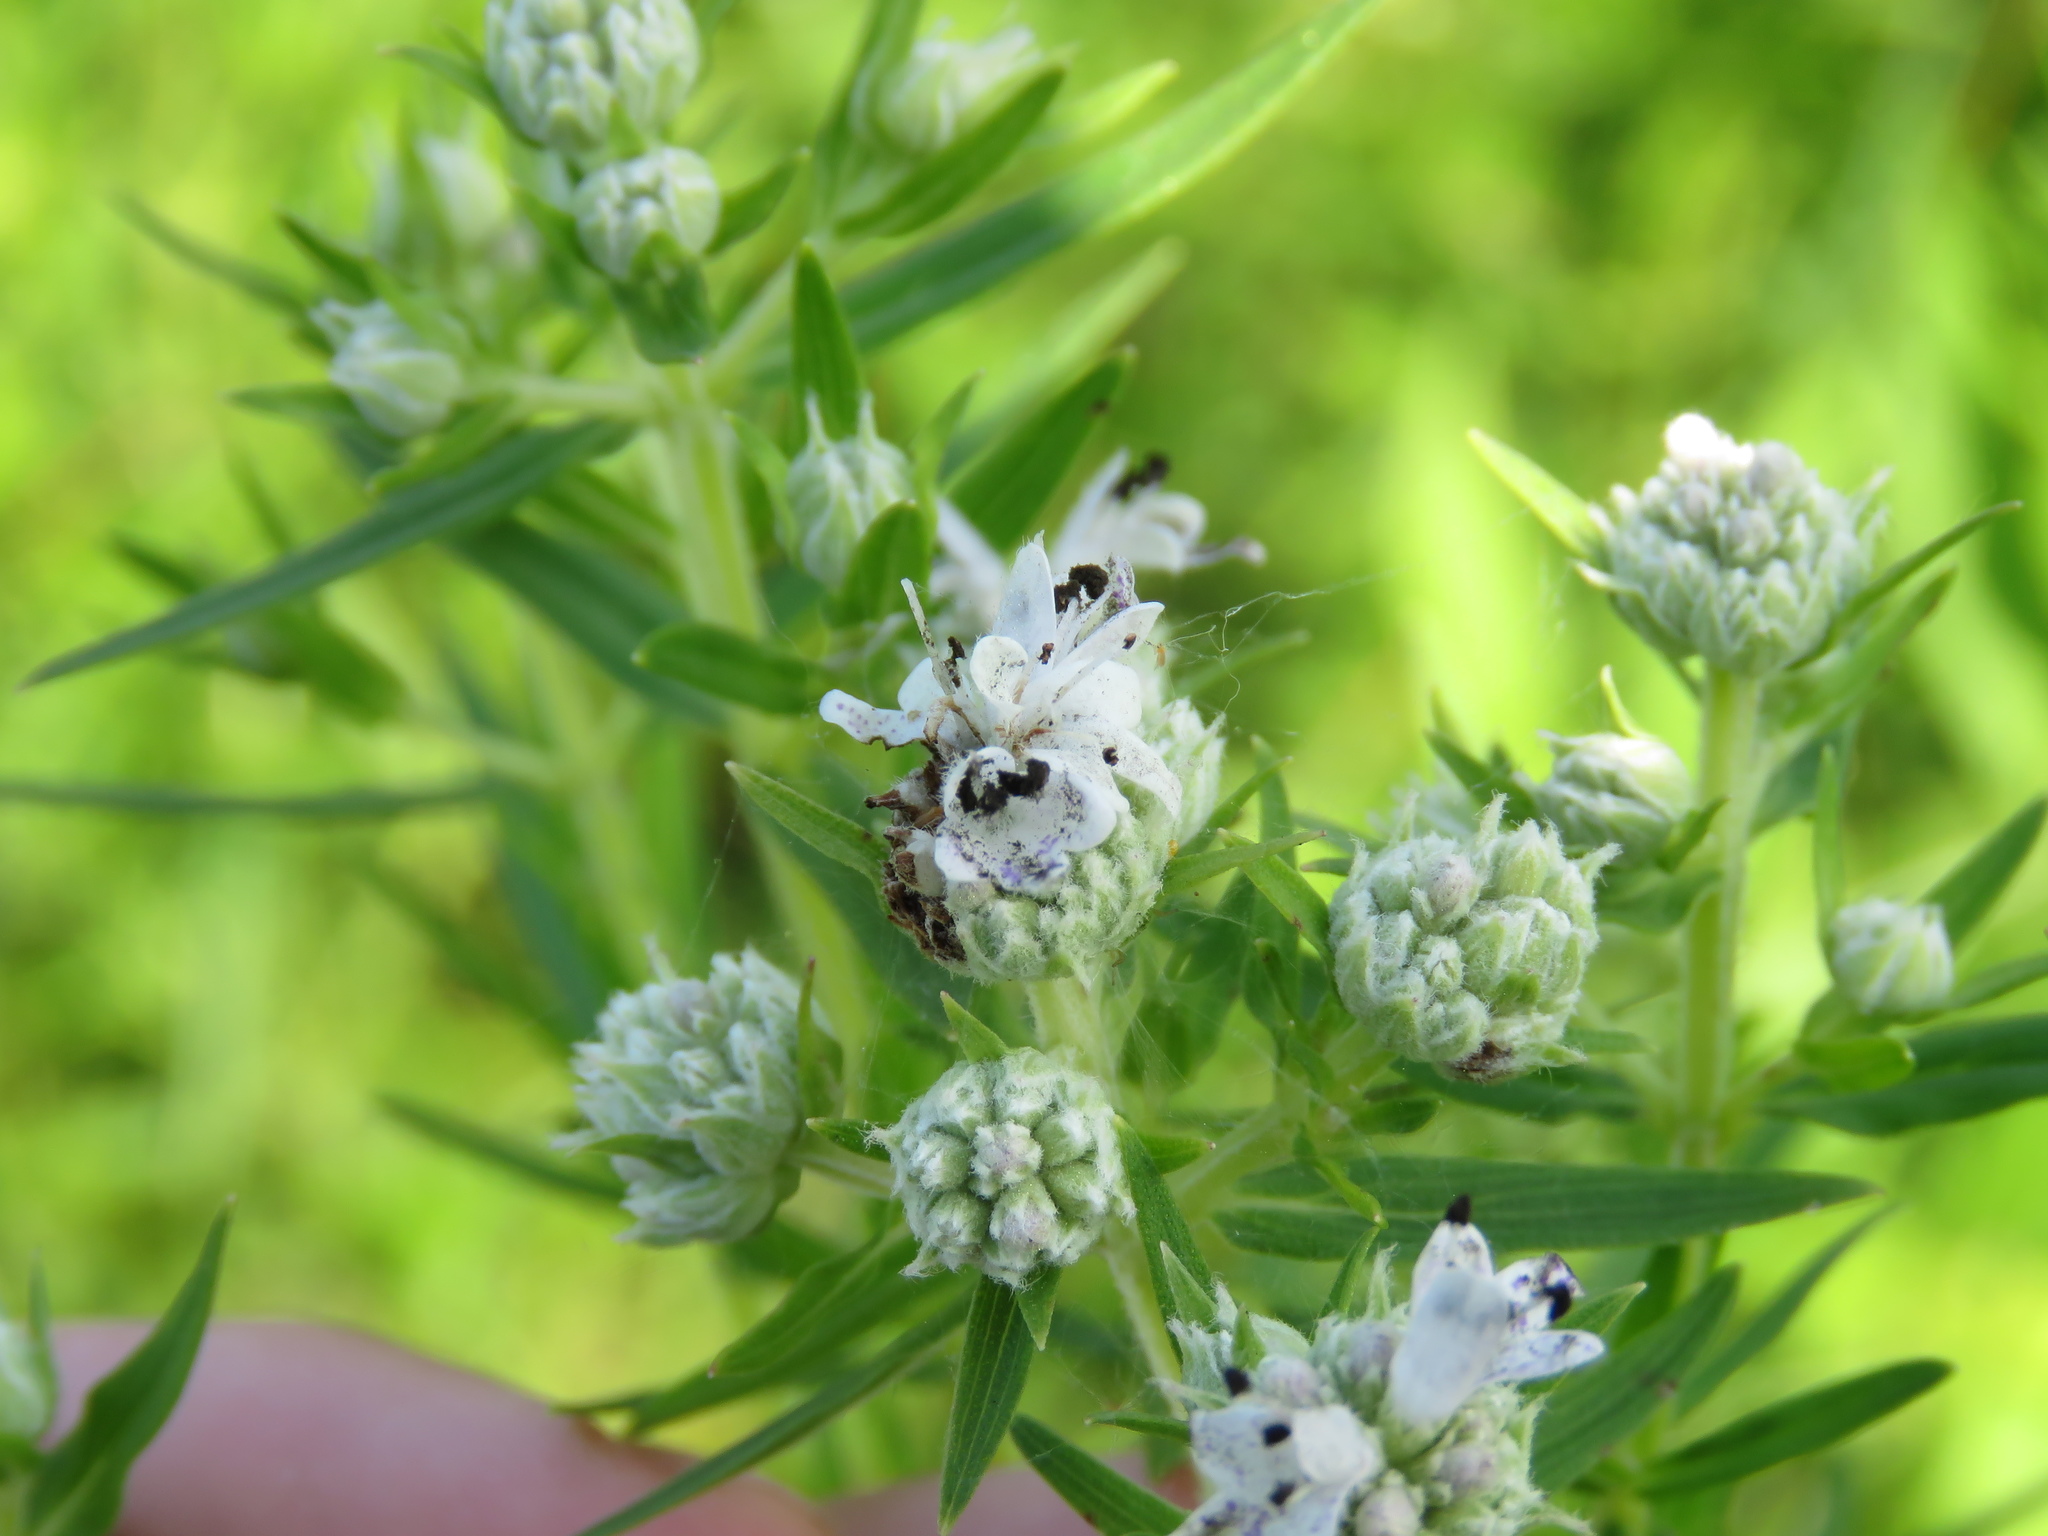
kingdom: Plantae
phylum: Tracheophyta
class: Magnoliopsida
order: Lamiales
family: Lamiaceae
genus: Pycnanthemum
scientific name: Pycnanthemum virginianum
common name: Virginia mountain-mint
